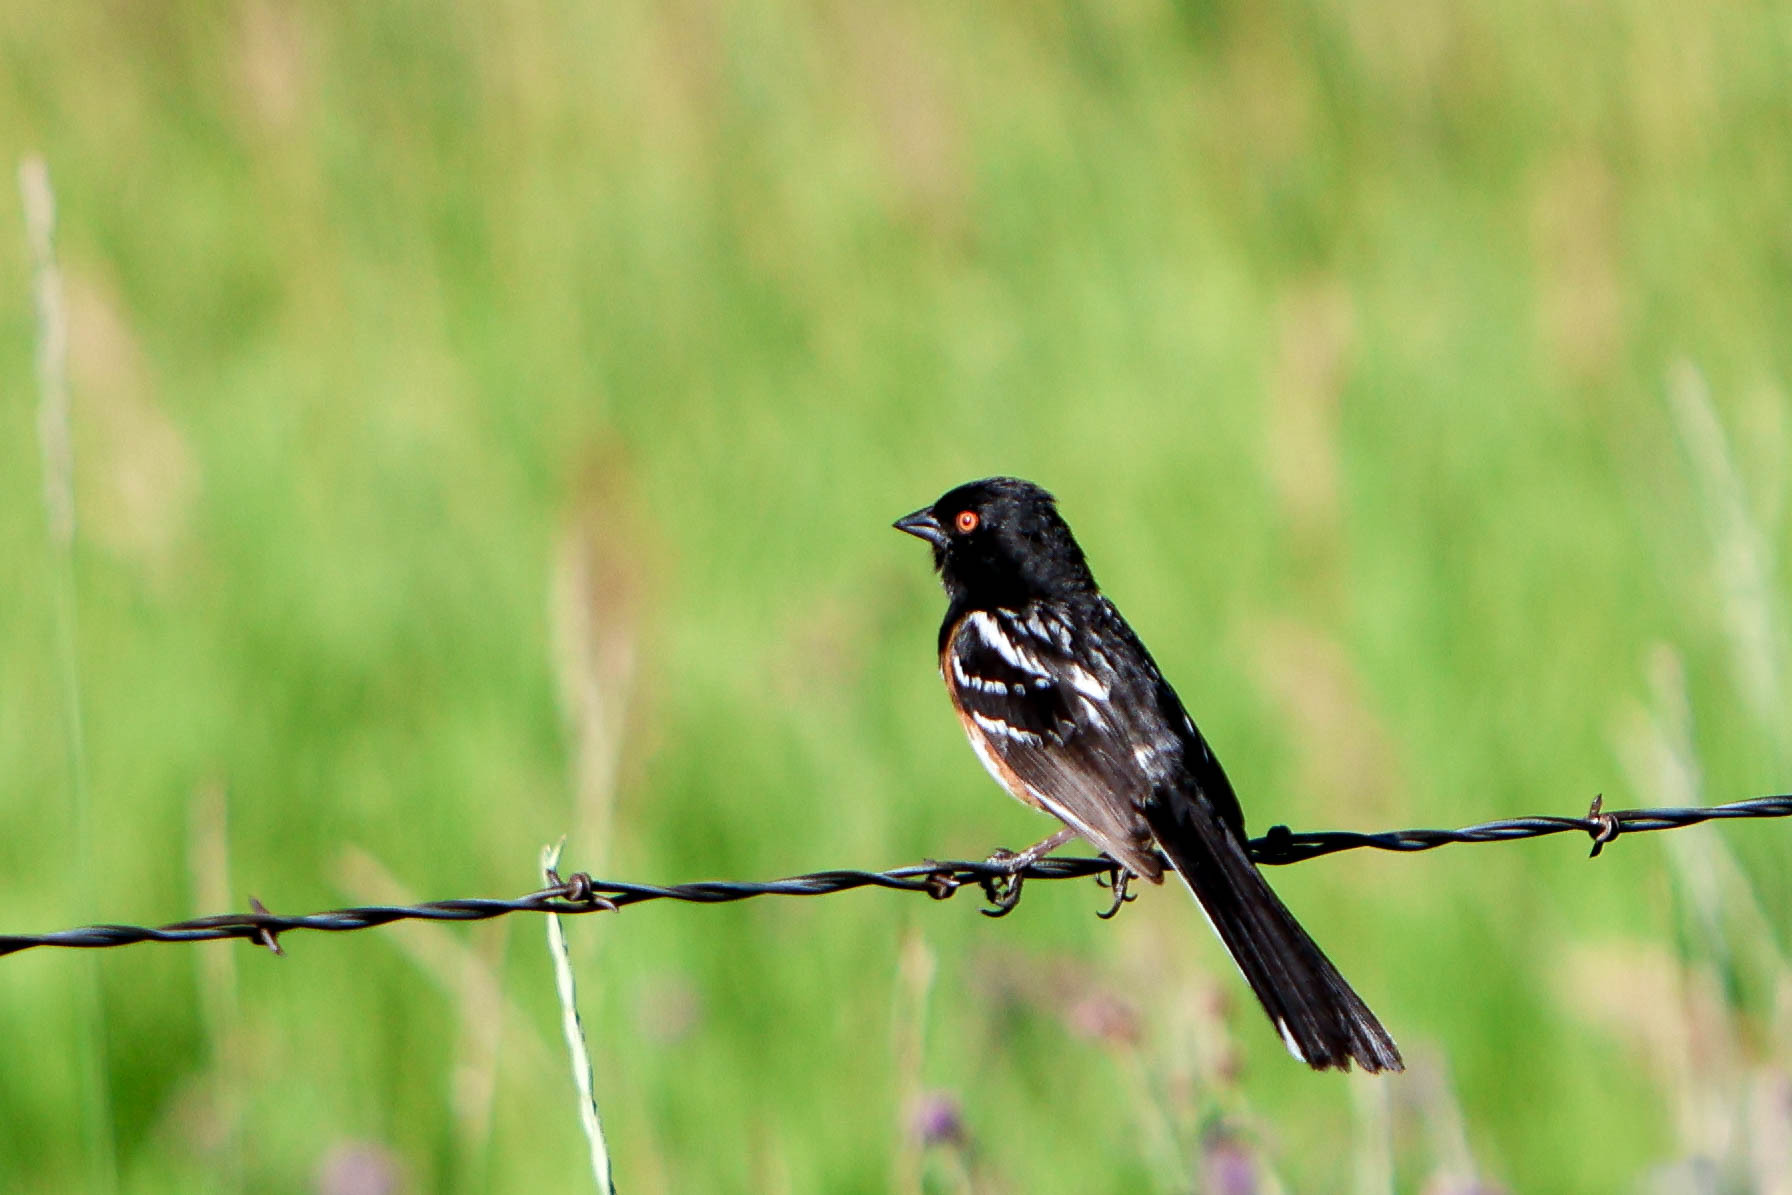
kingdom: Animalia
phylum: Chordata
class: Aves
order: Passeriformes
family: Passerellidae
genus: Pipilo
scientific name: Pipilo maculatus
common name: Spotted towhee
